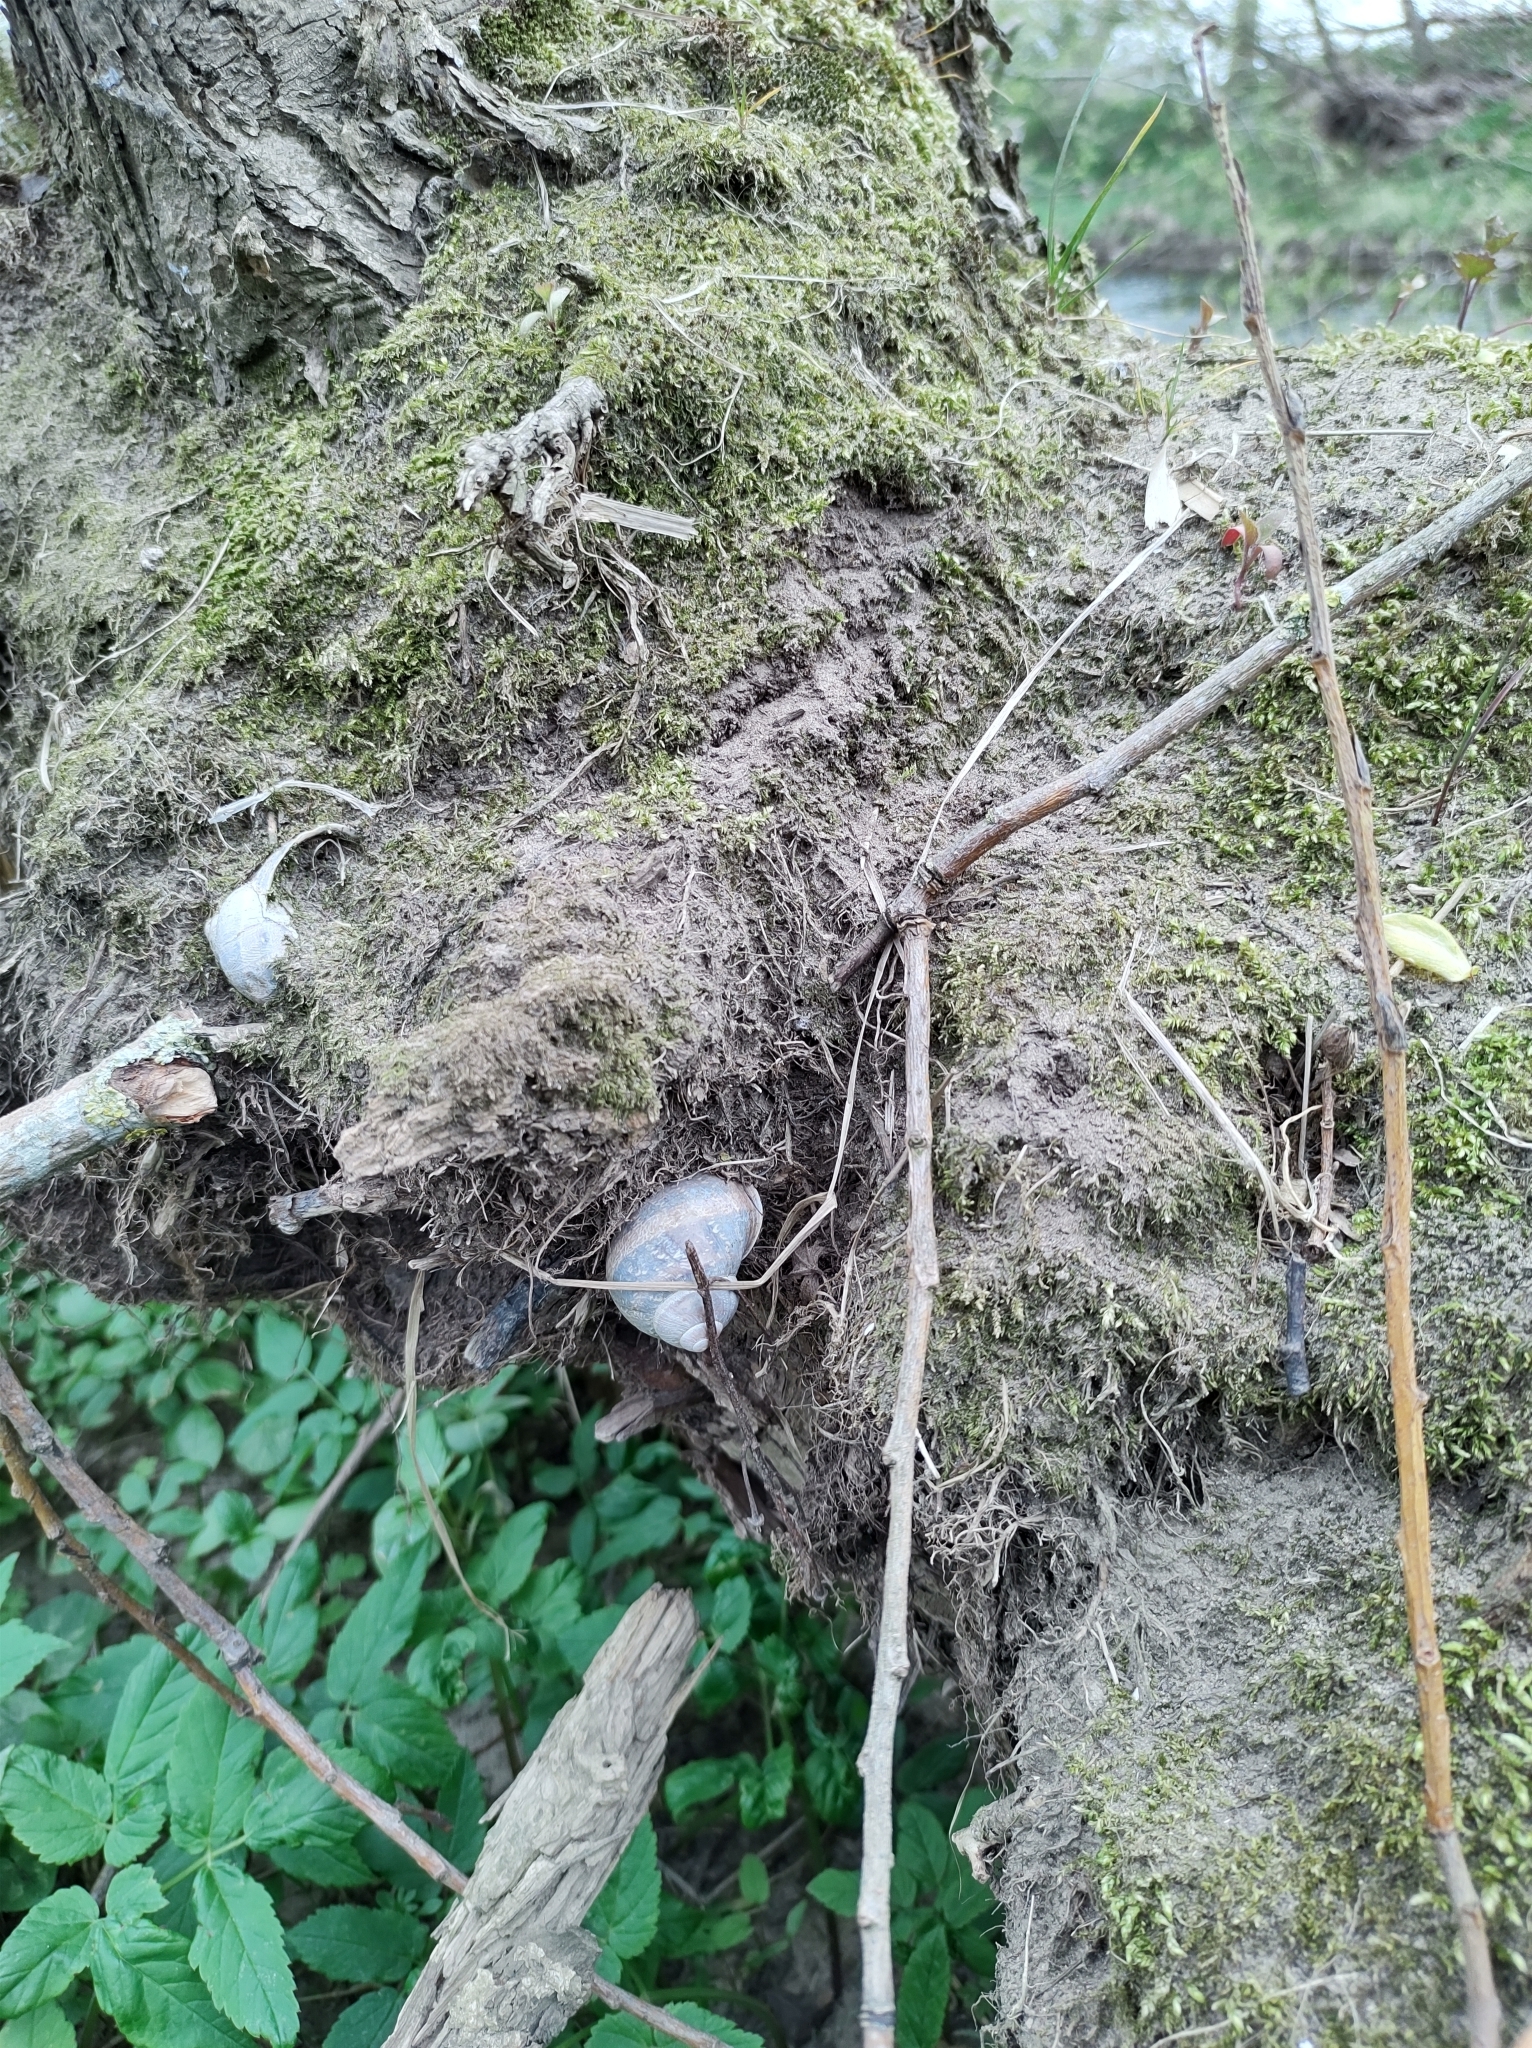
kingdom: Animalia
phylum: Mollusca
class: Gastropoda
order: Stylommatophora
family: Helicidae
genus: Cornu
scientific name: Cornu aspersum
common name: Brown garden snail
